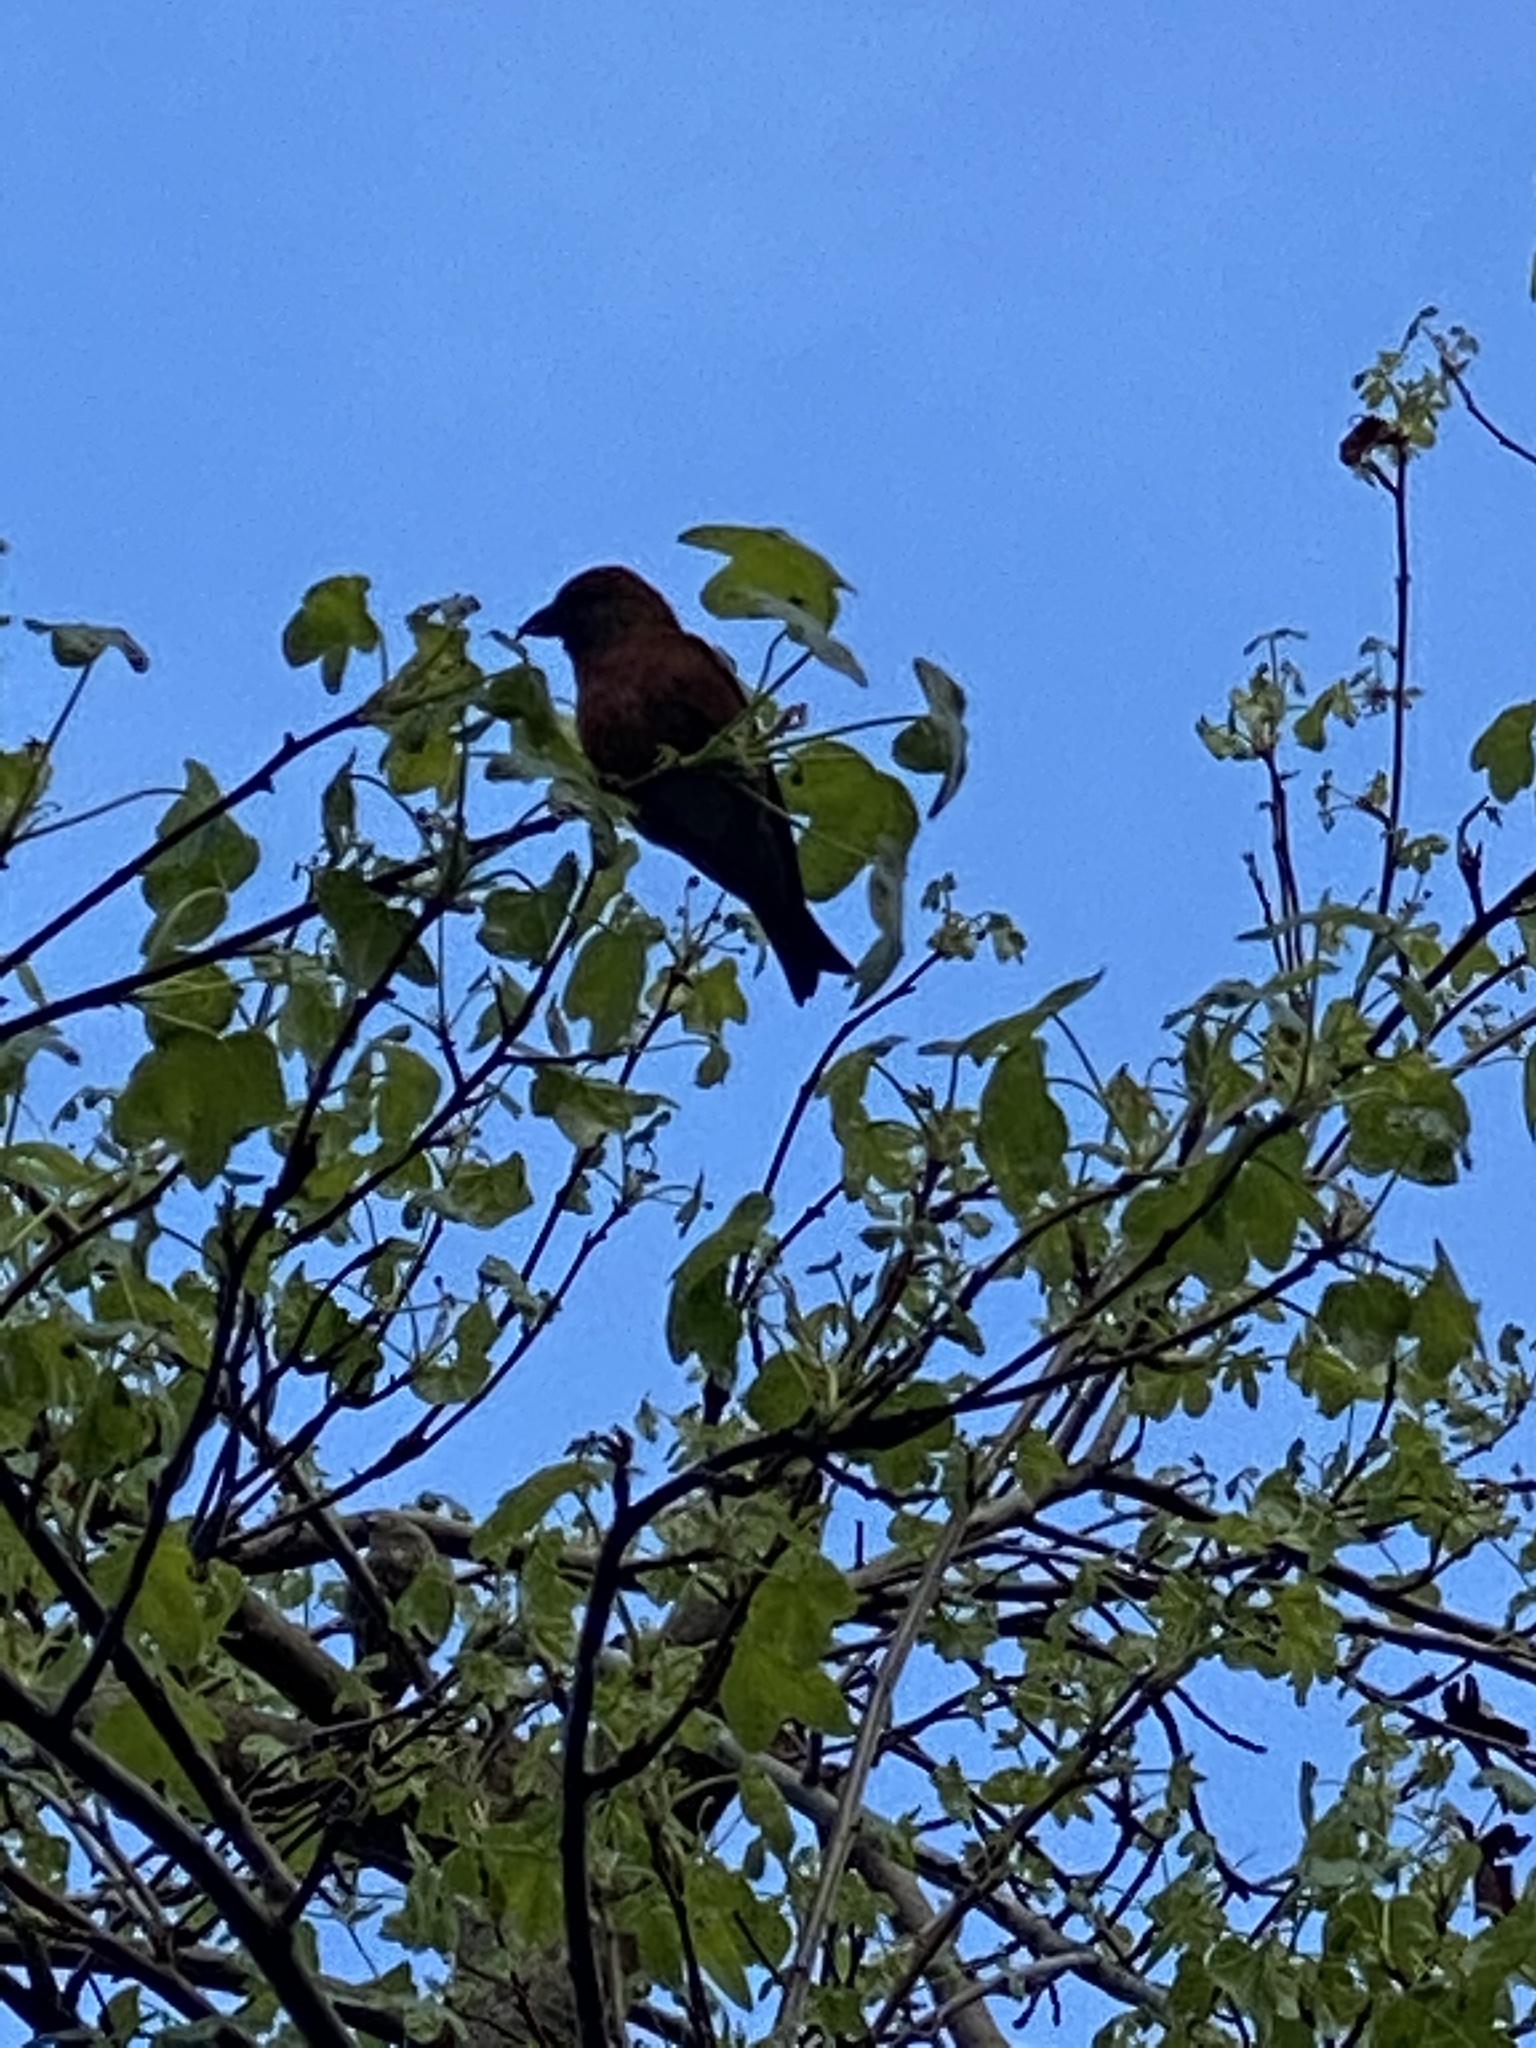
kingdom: Animalia
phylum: Chordata
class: Aves
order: Passeriformes
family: Fringillidae
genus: Loxia
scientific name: Loxia curvirostra
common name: Red crossbill
